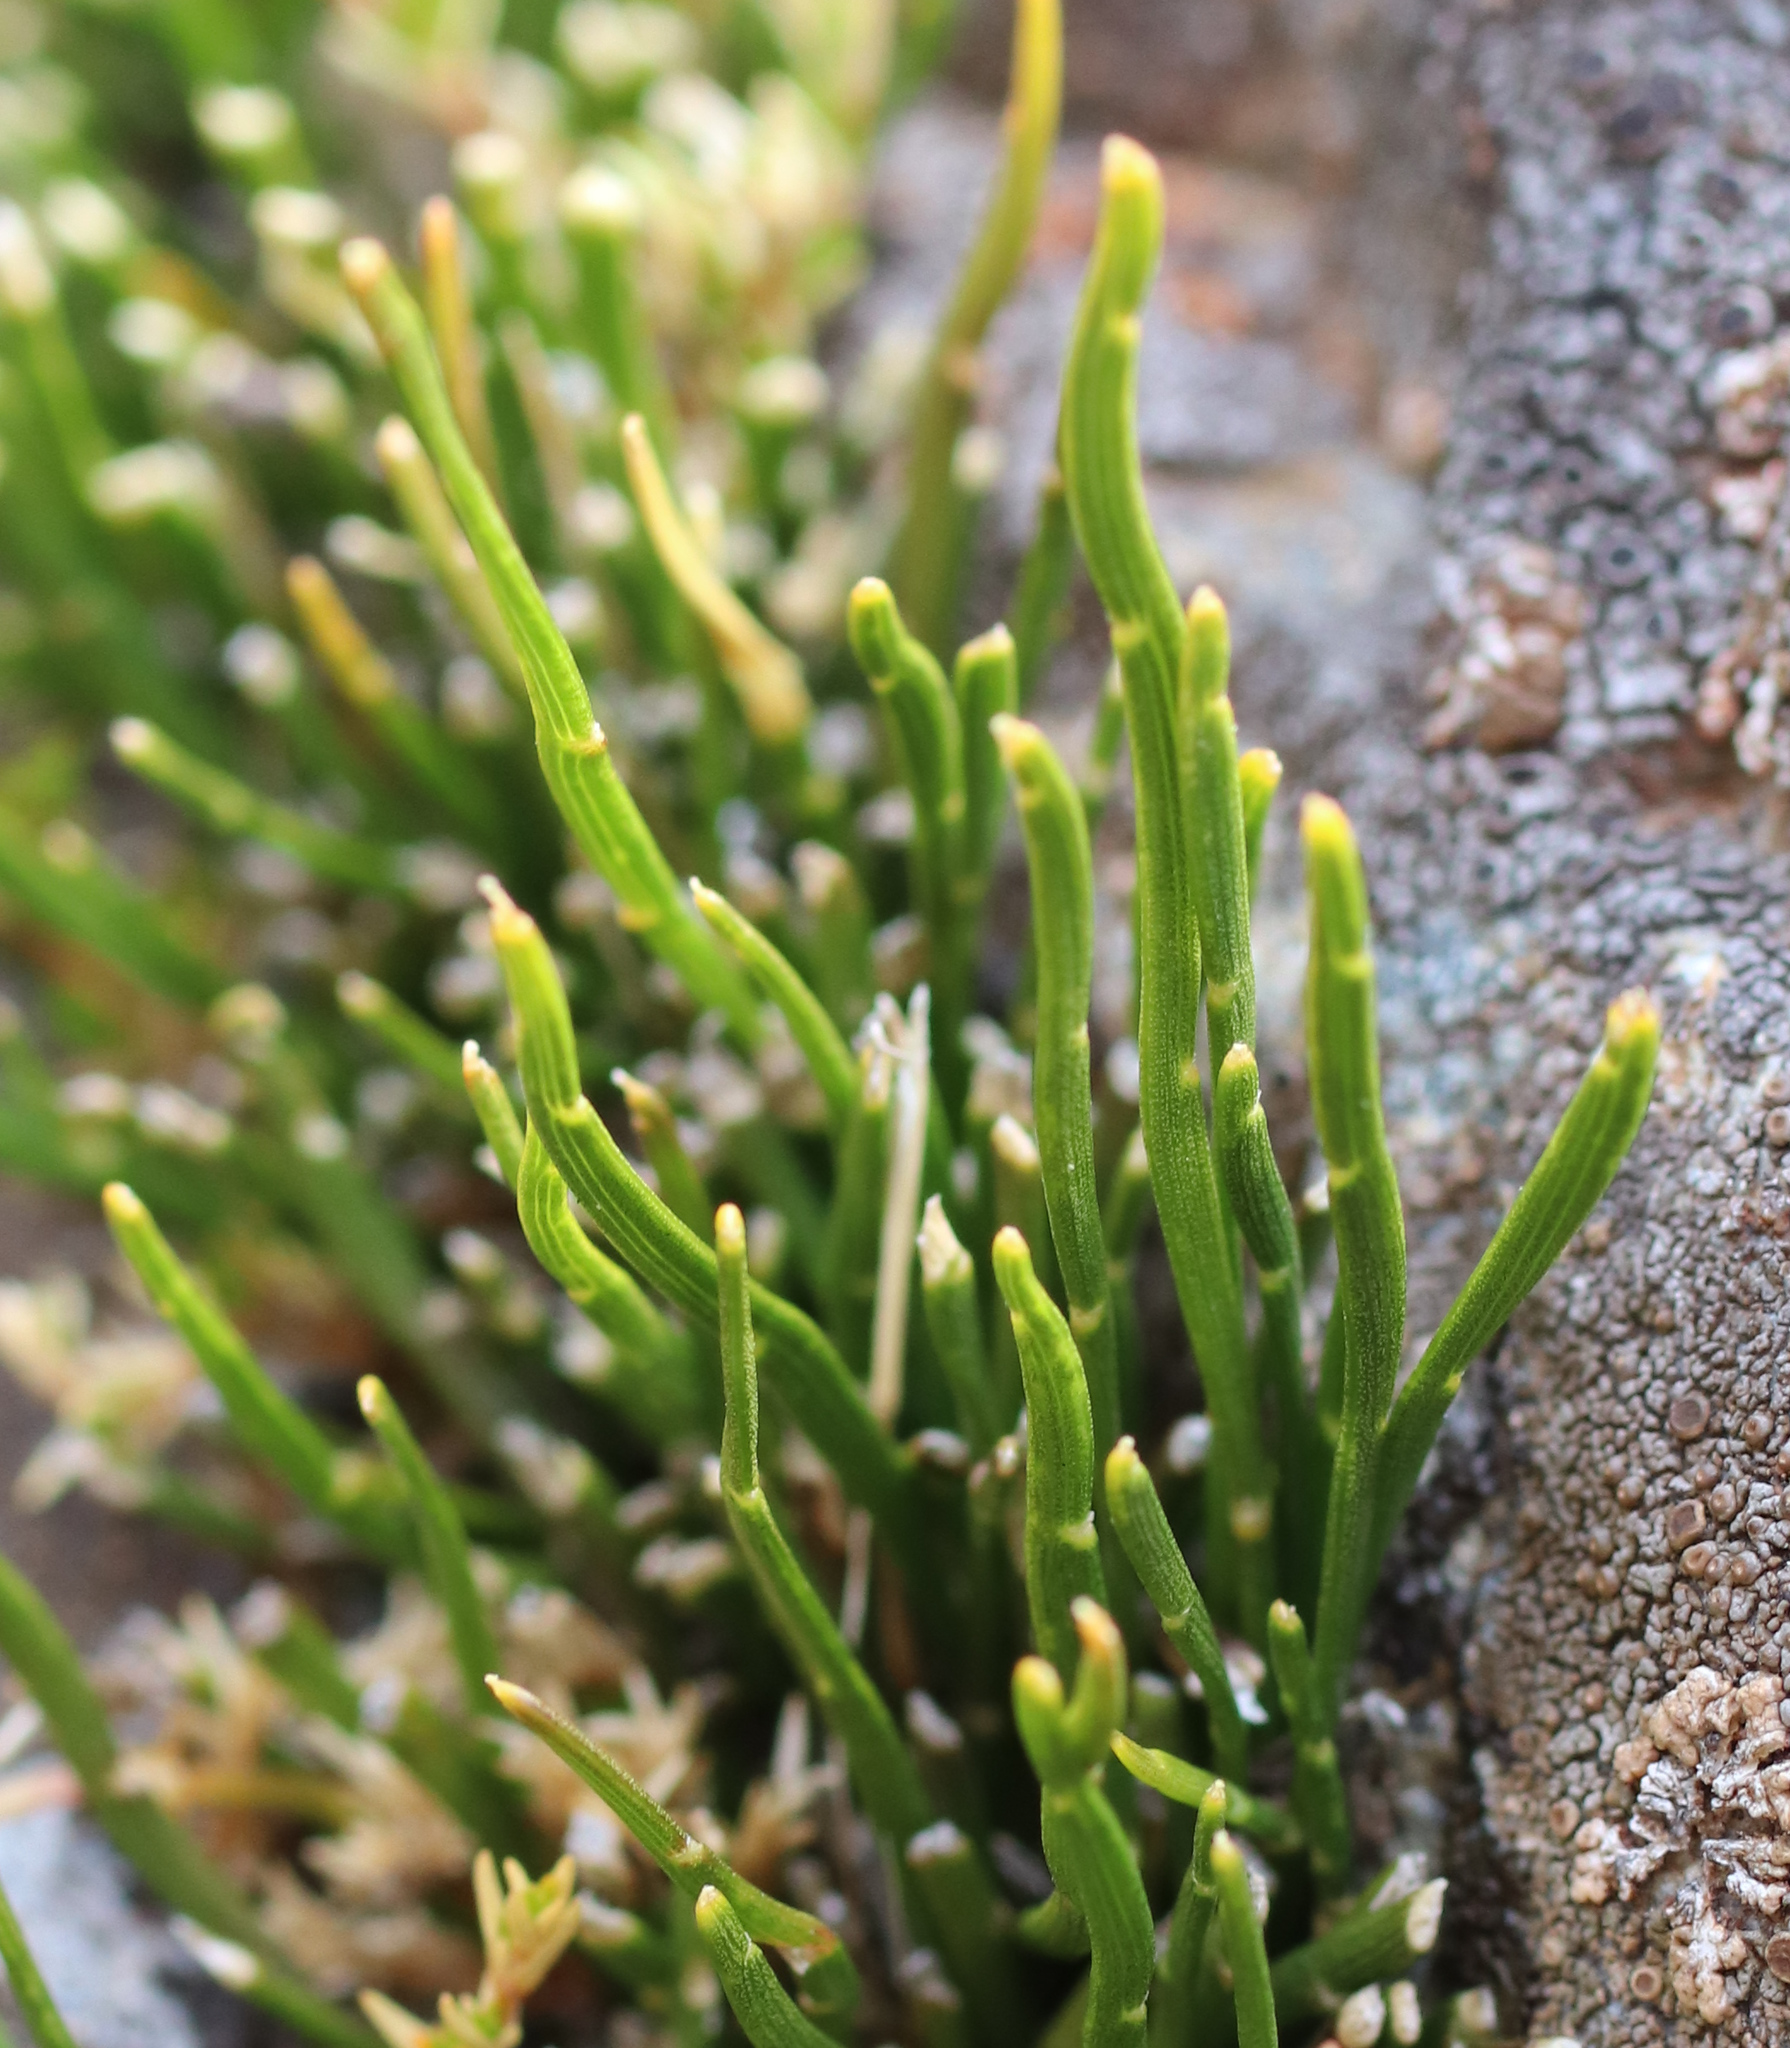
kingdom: Plantae
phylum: Tracheophyta
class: Magnoliopsida
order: Fabales
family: Fabaceae
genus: Carmichaelia
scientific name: Carmichaelia uniflora
